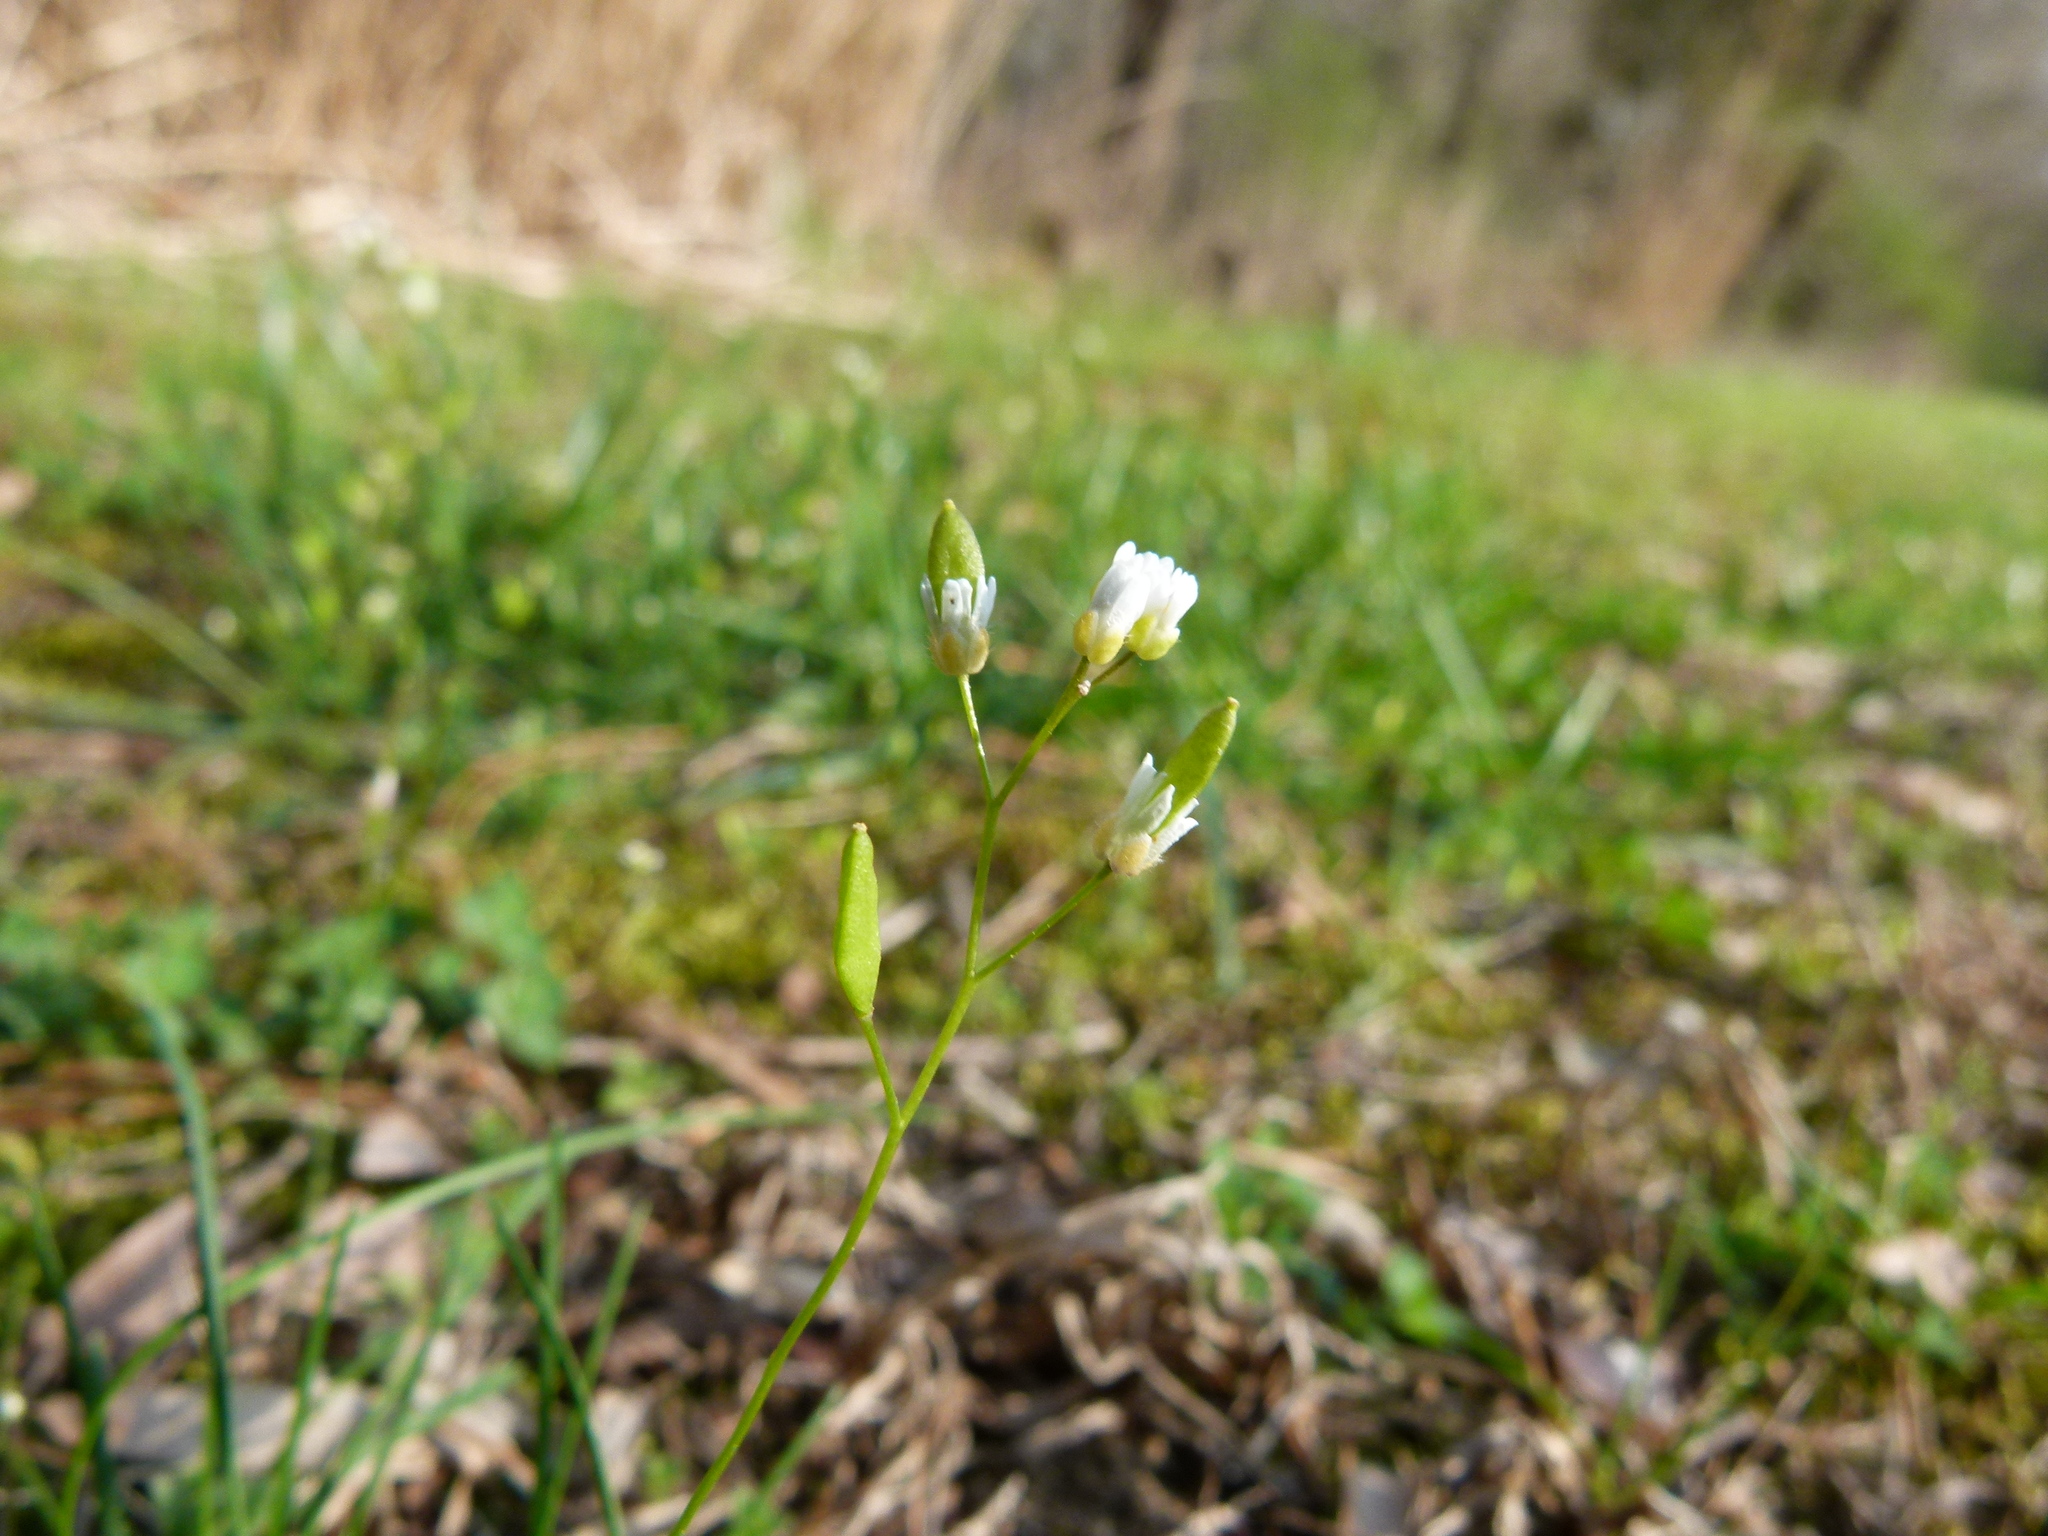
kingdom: Plantae
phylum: Tracheophyta
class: Magnoliopsida
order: Brassicales
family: Brassicaceae
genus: Draba
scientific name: Draba verna
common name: Spring draba
